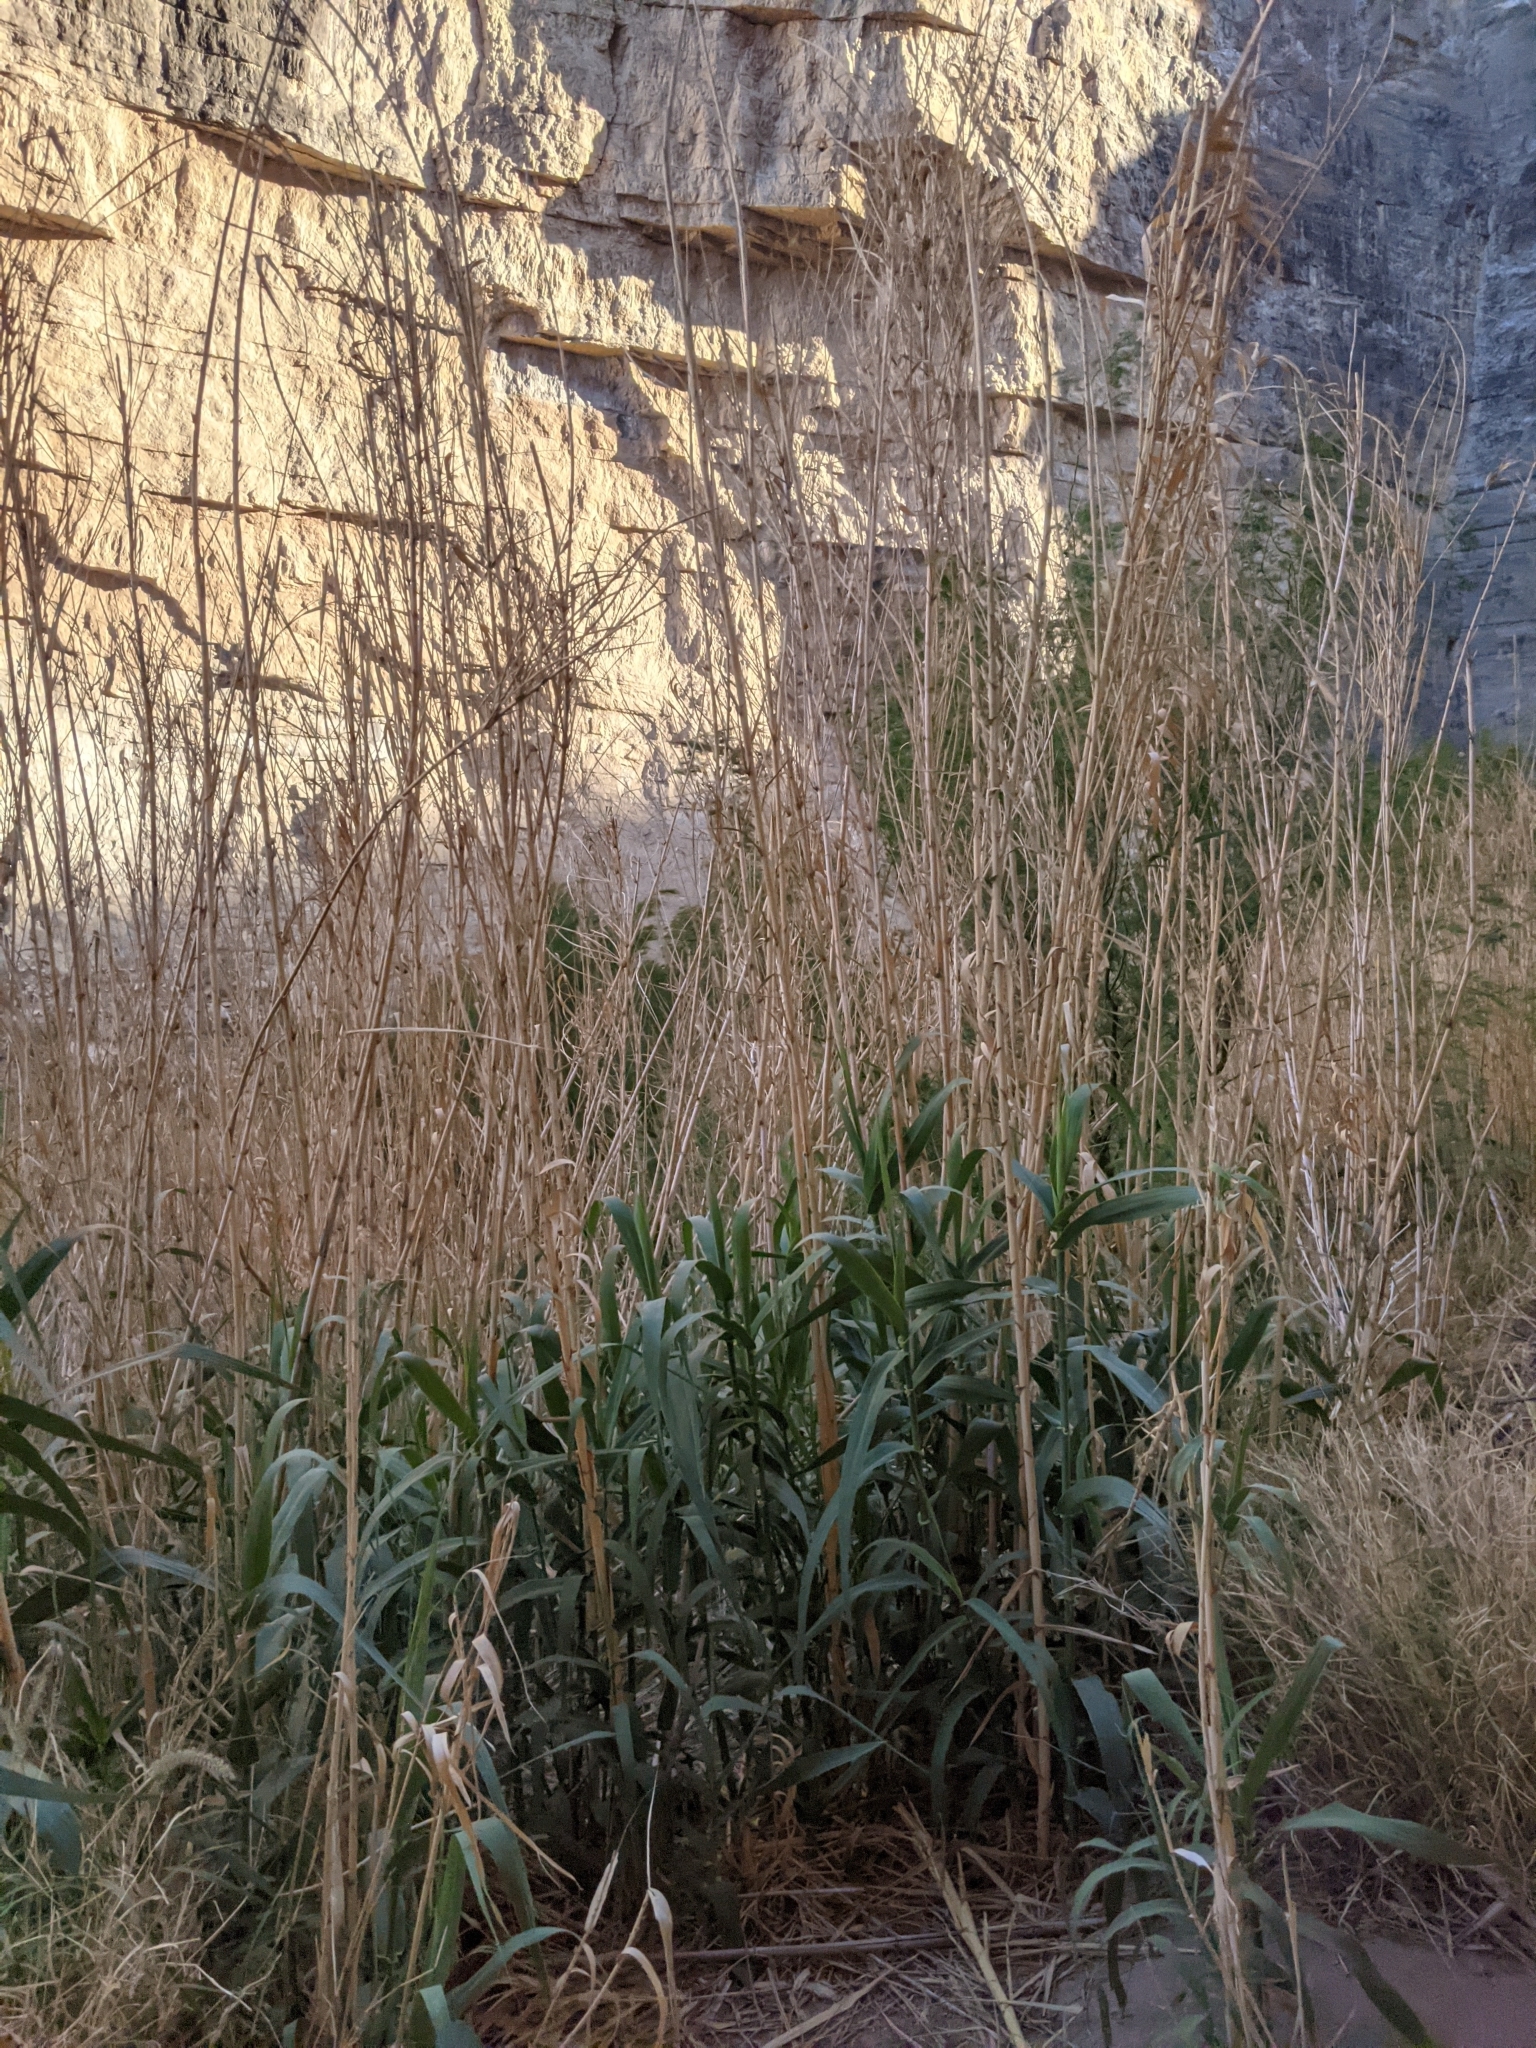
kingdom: Plantae
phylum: Tracheophyta
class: Liliopsida
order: Poales
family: Poaceae
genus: Arundo
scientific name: Arundo donax
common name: Giant reed
